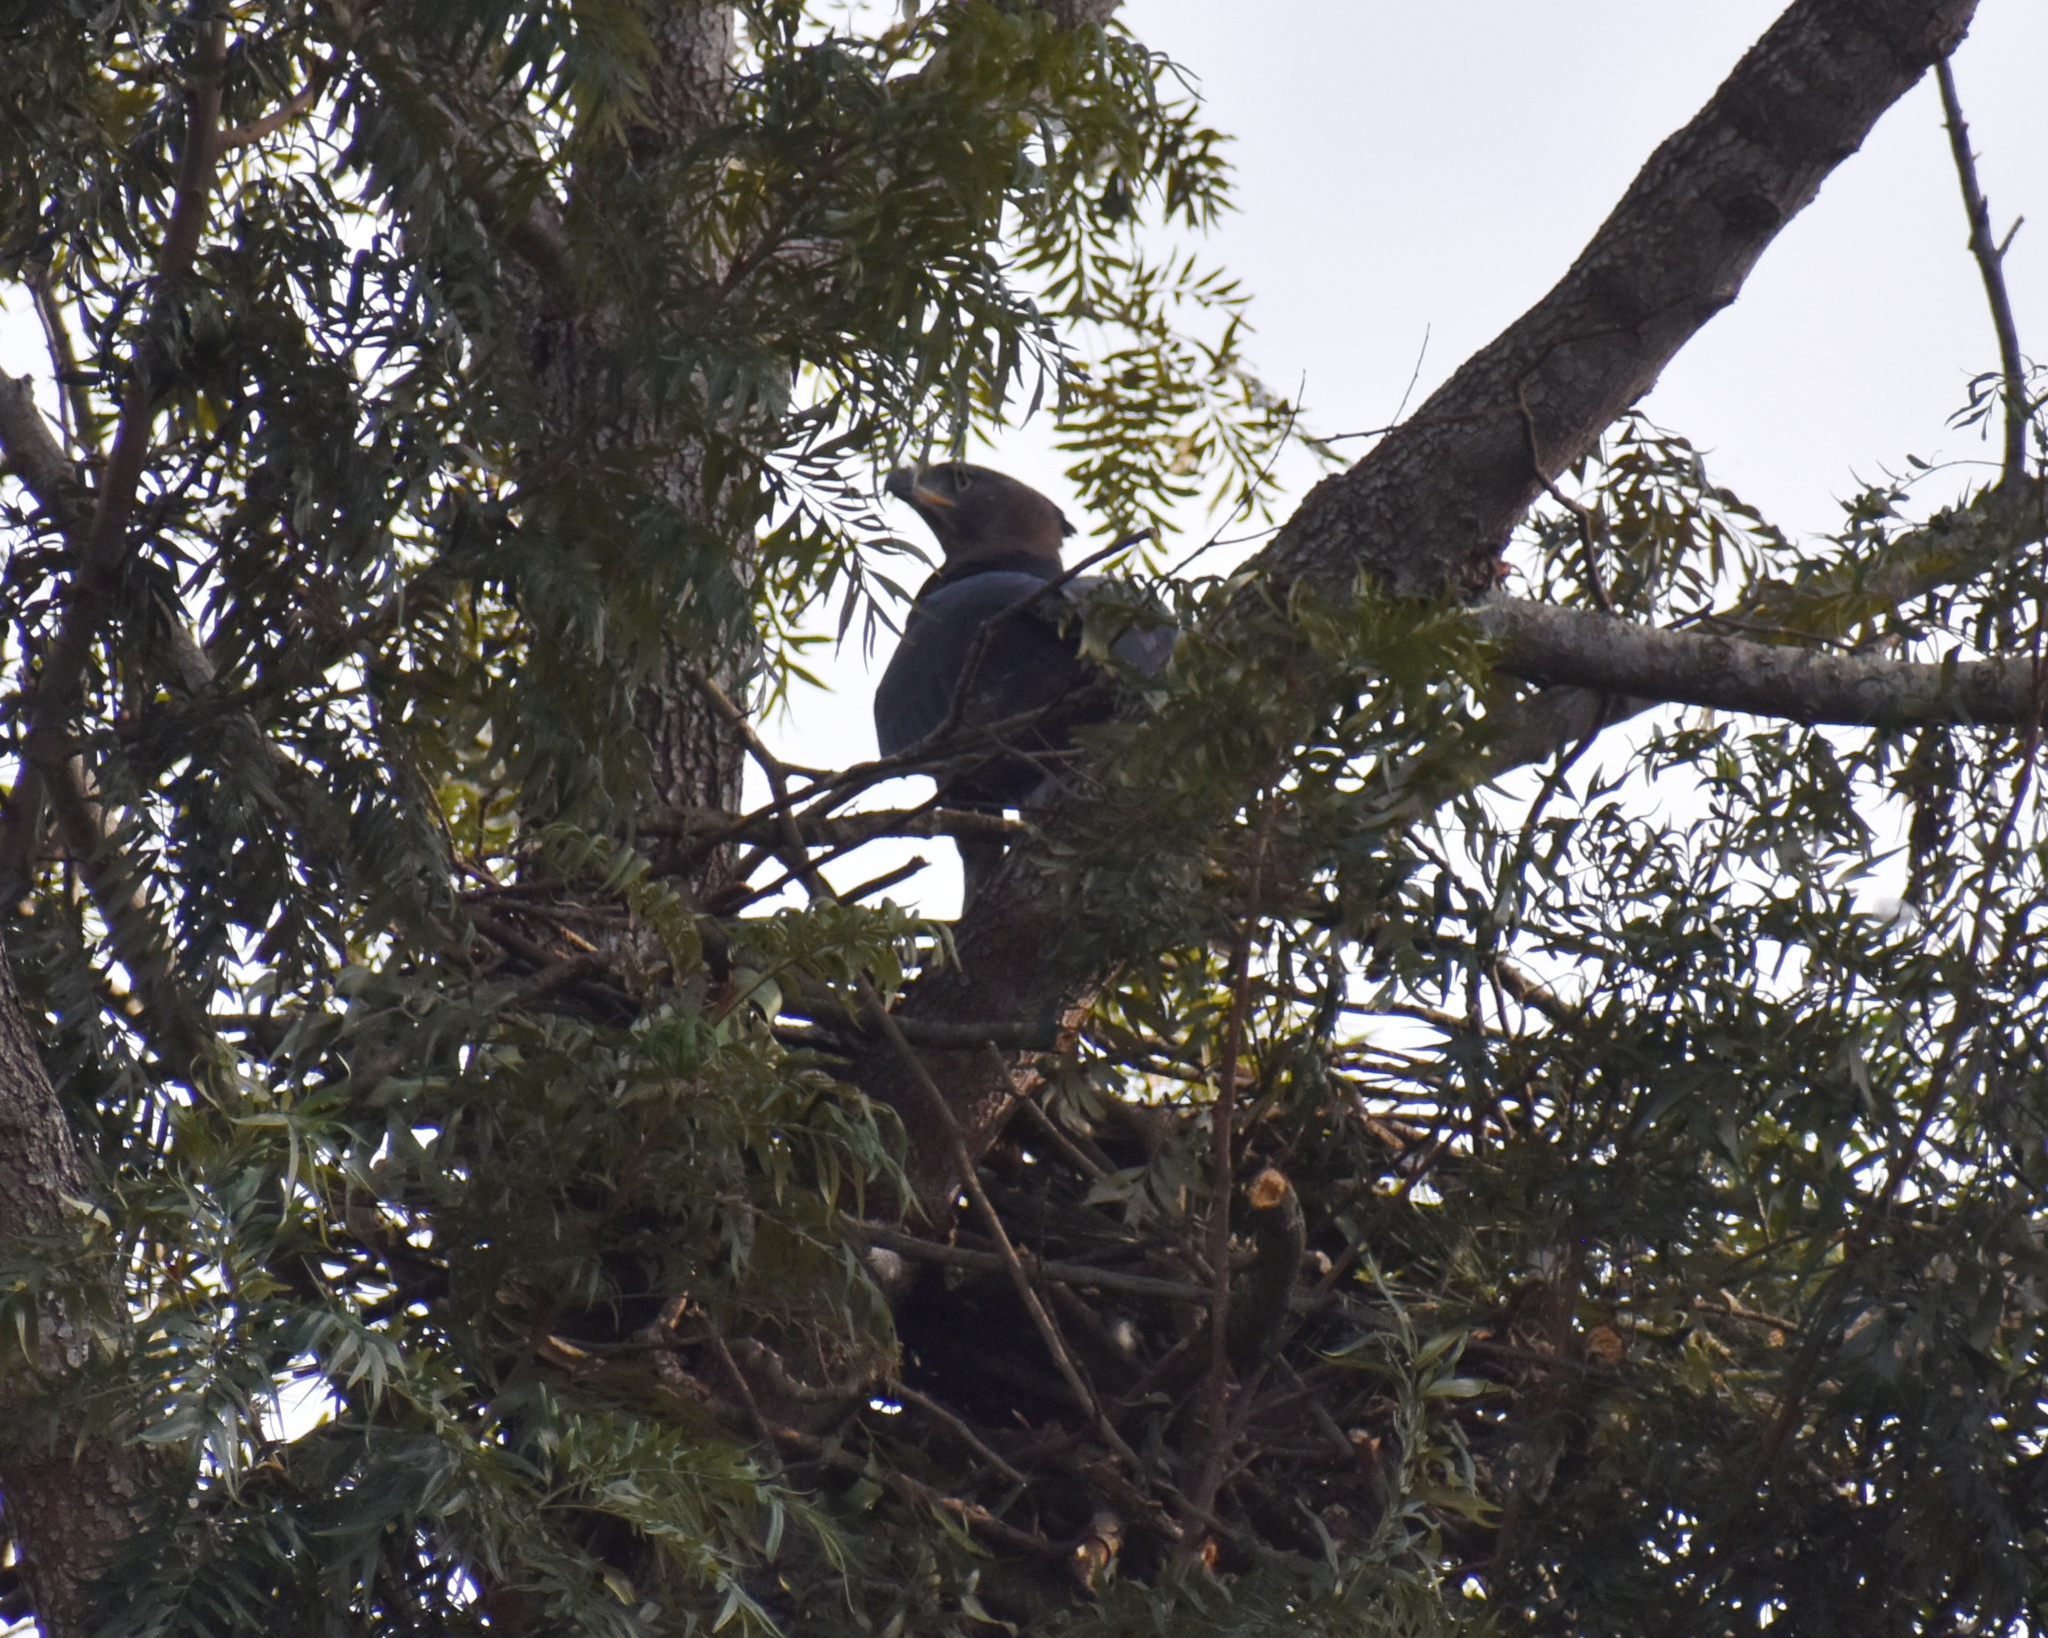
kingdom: Animalia
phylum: Chordata
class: Aves
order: Accipitriformes
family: Accipitridae
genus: Stephanoaetus
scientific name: Stephanoaetus coronatus
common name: Crowned eagle
